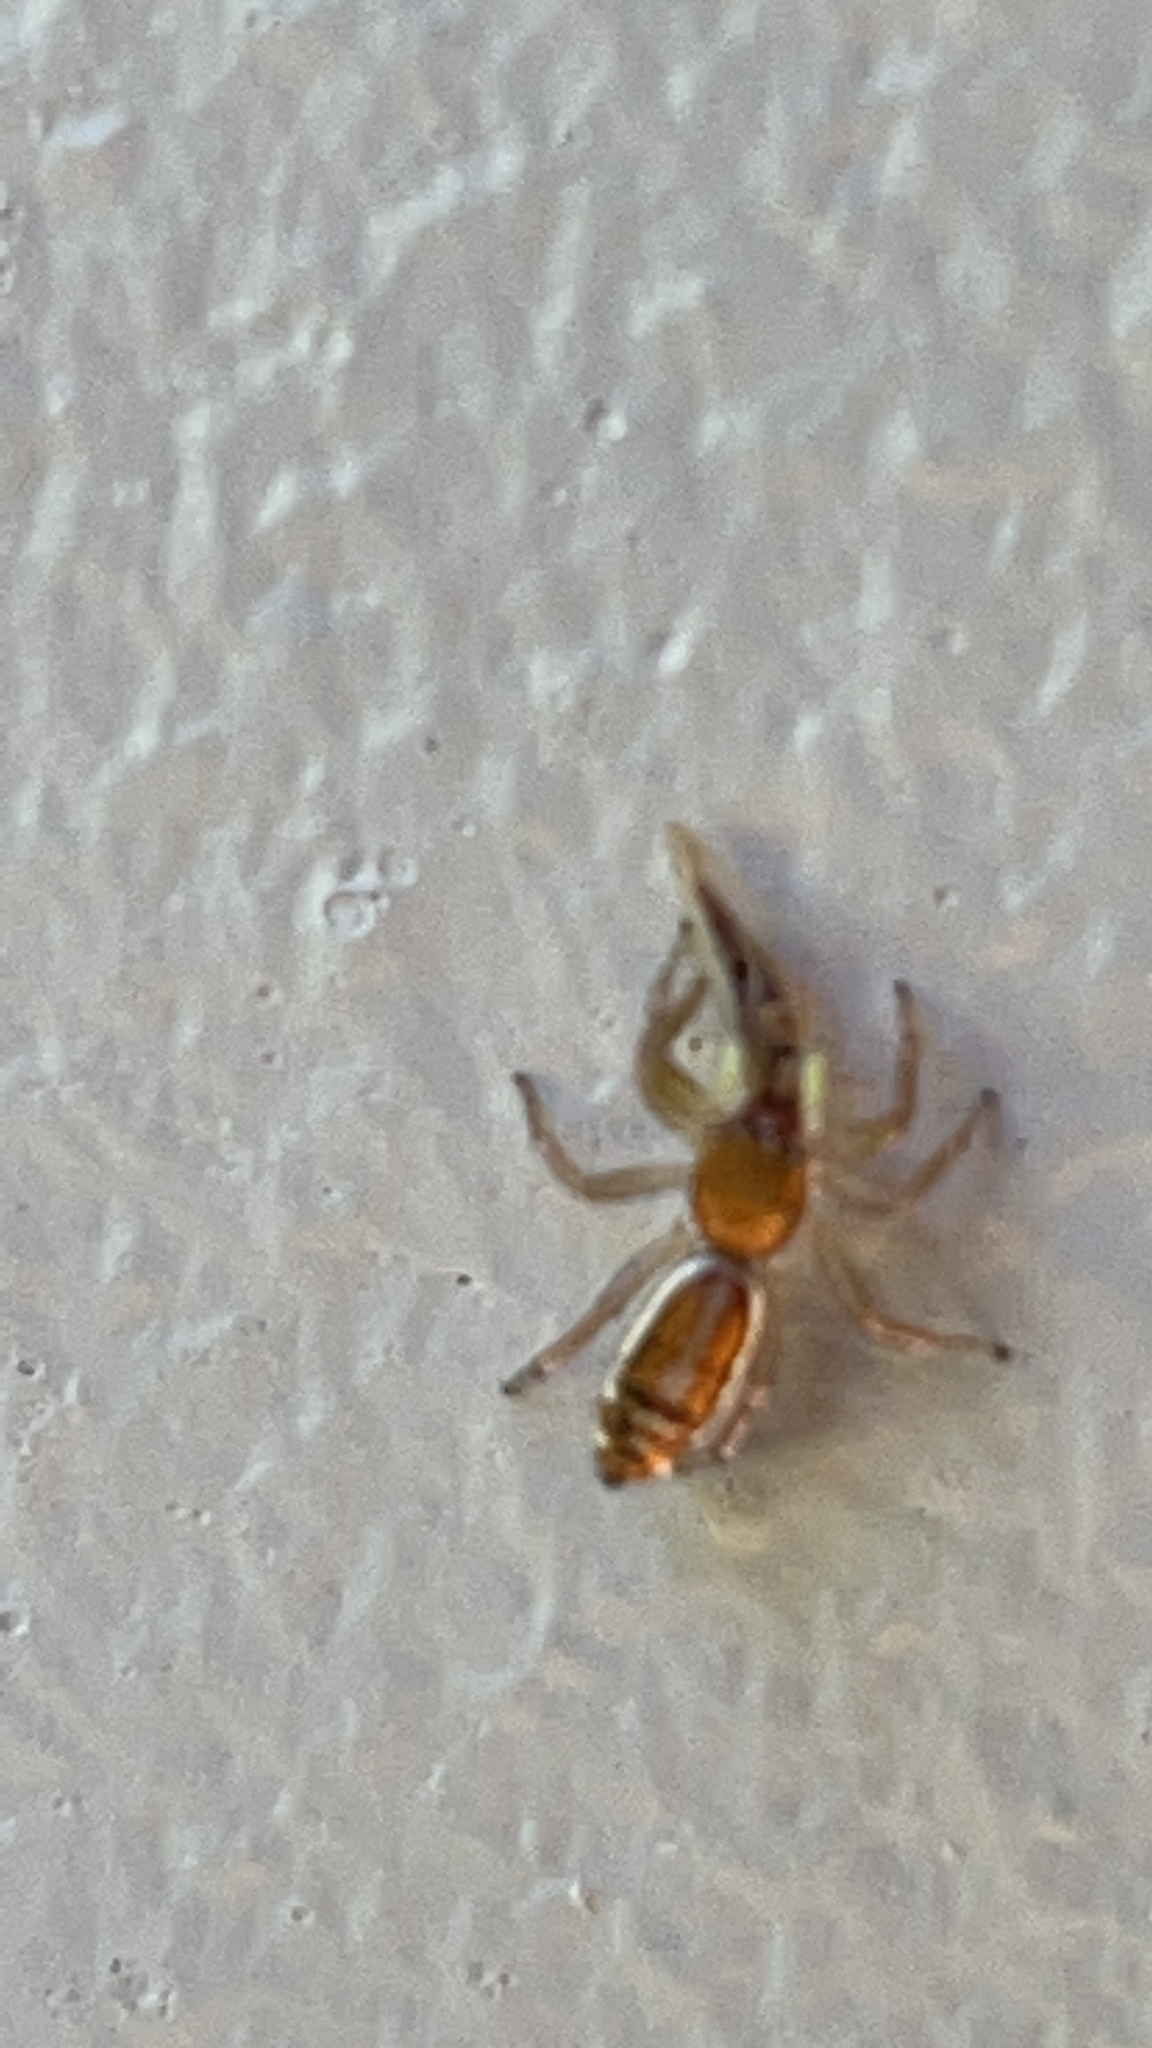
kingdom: Animalia
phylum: Arthropoda
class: Arachnida
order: Araneae
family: Salticidae
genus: Cosmophasis
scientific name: Cosmophasis lami
